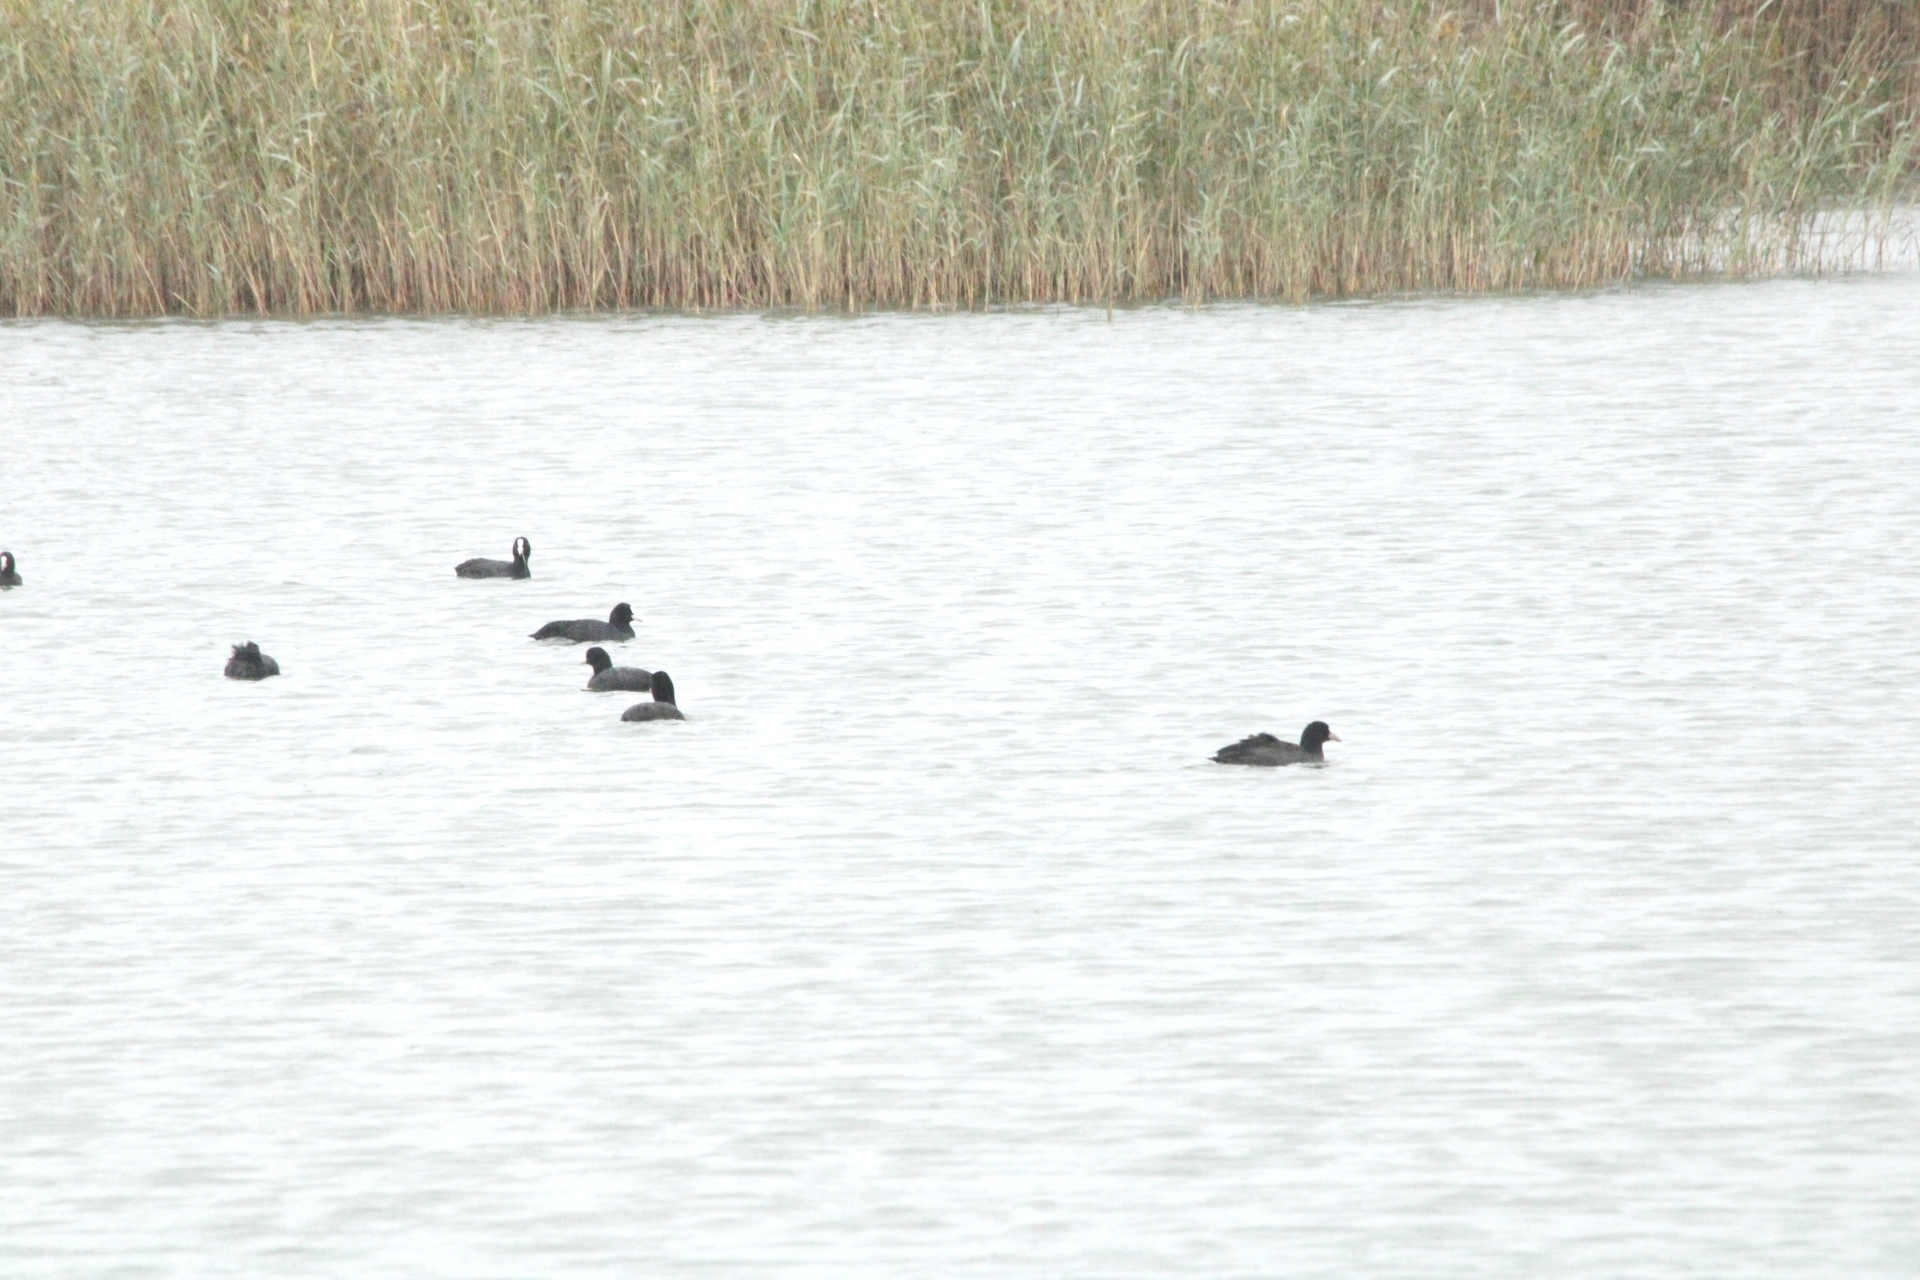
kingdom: Animalia
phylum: Chordata
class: Aves
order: Gruiformes
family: Rallidae
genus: Fulica
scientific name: Fulica atra
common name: Eurasian coot
